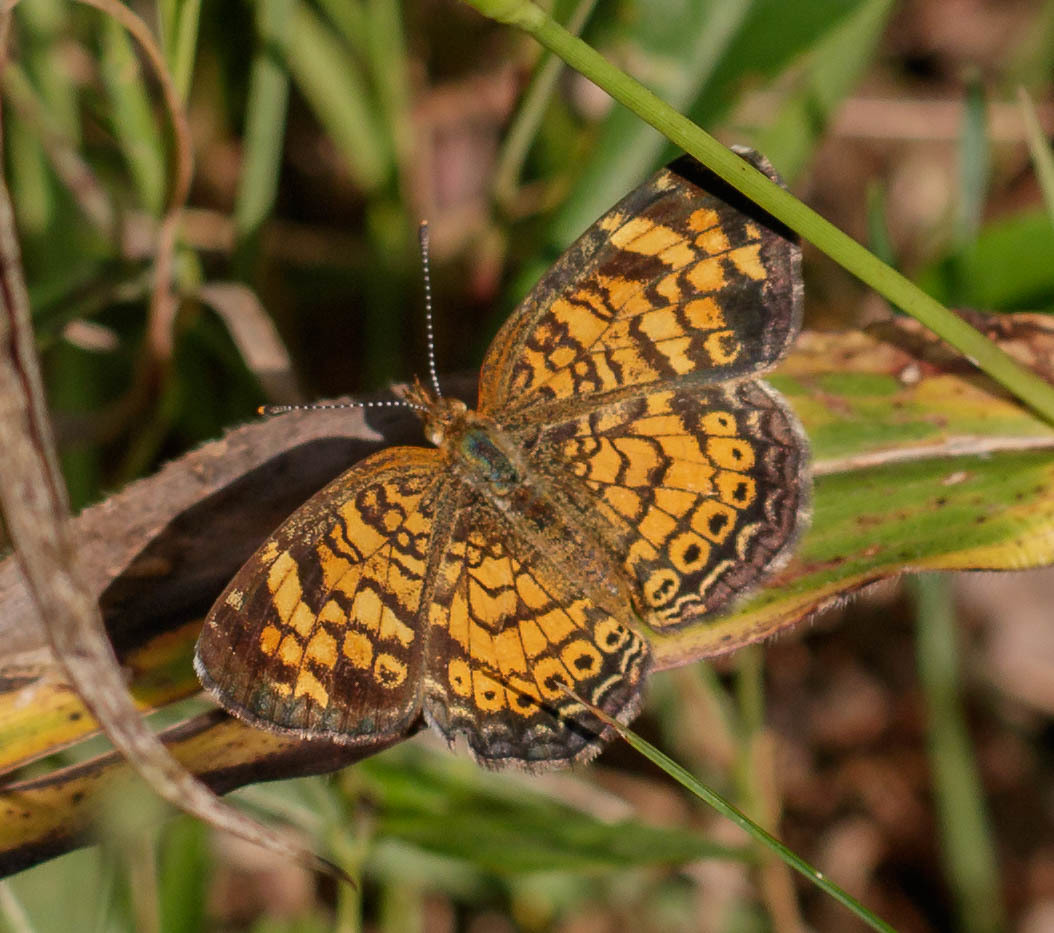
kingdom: Animalia
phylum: Arthropoda
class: Insecta
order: Lepidoptera
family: Nymphalidae
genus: Phyciodes
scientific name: Phyciodes tharos
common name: Pearl crescent
